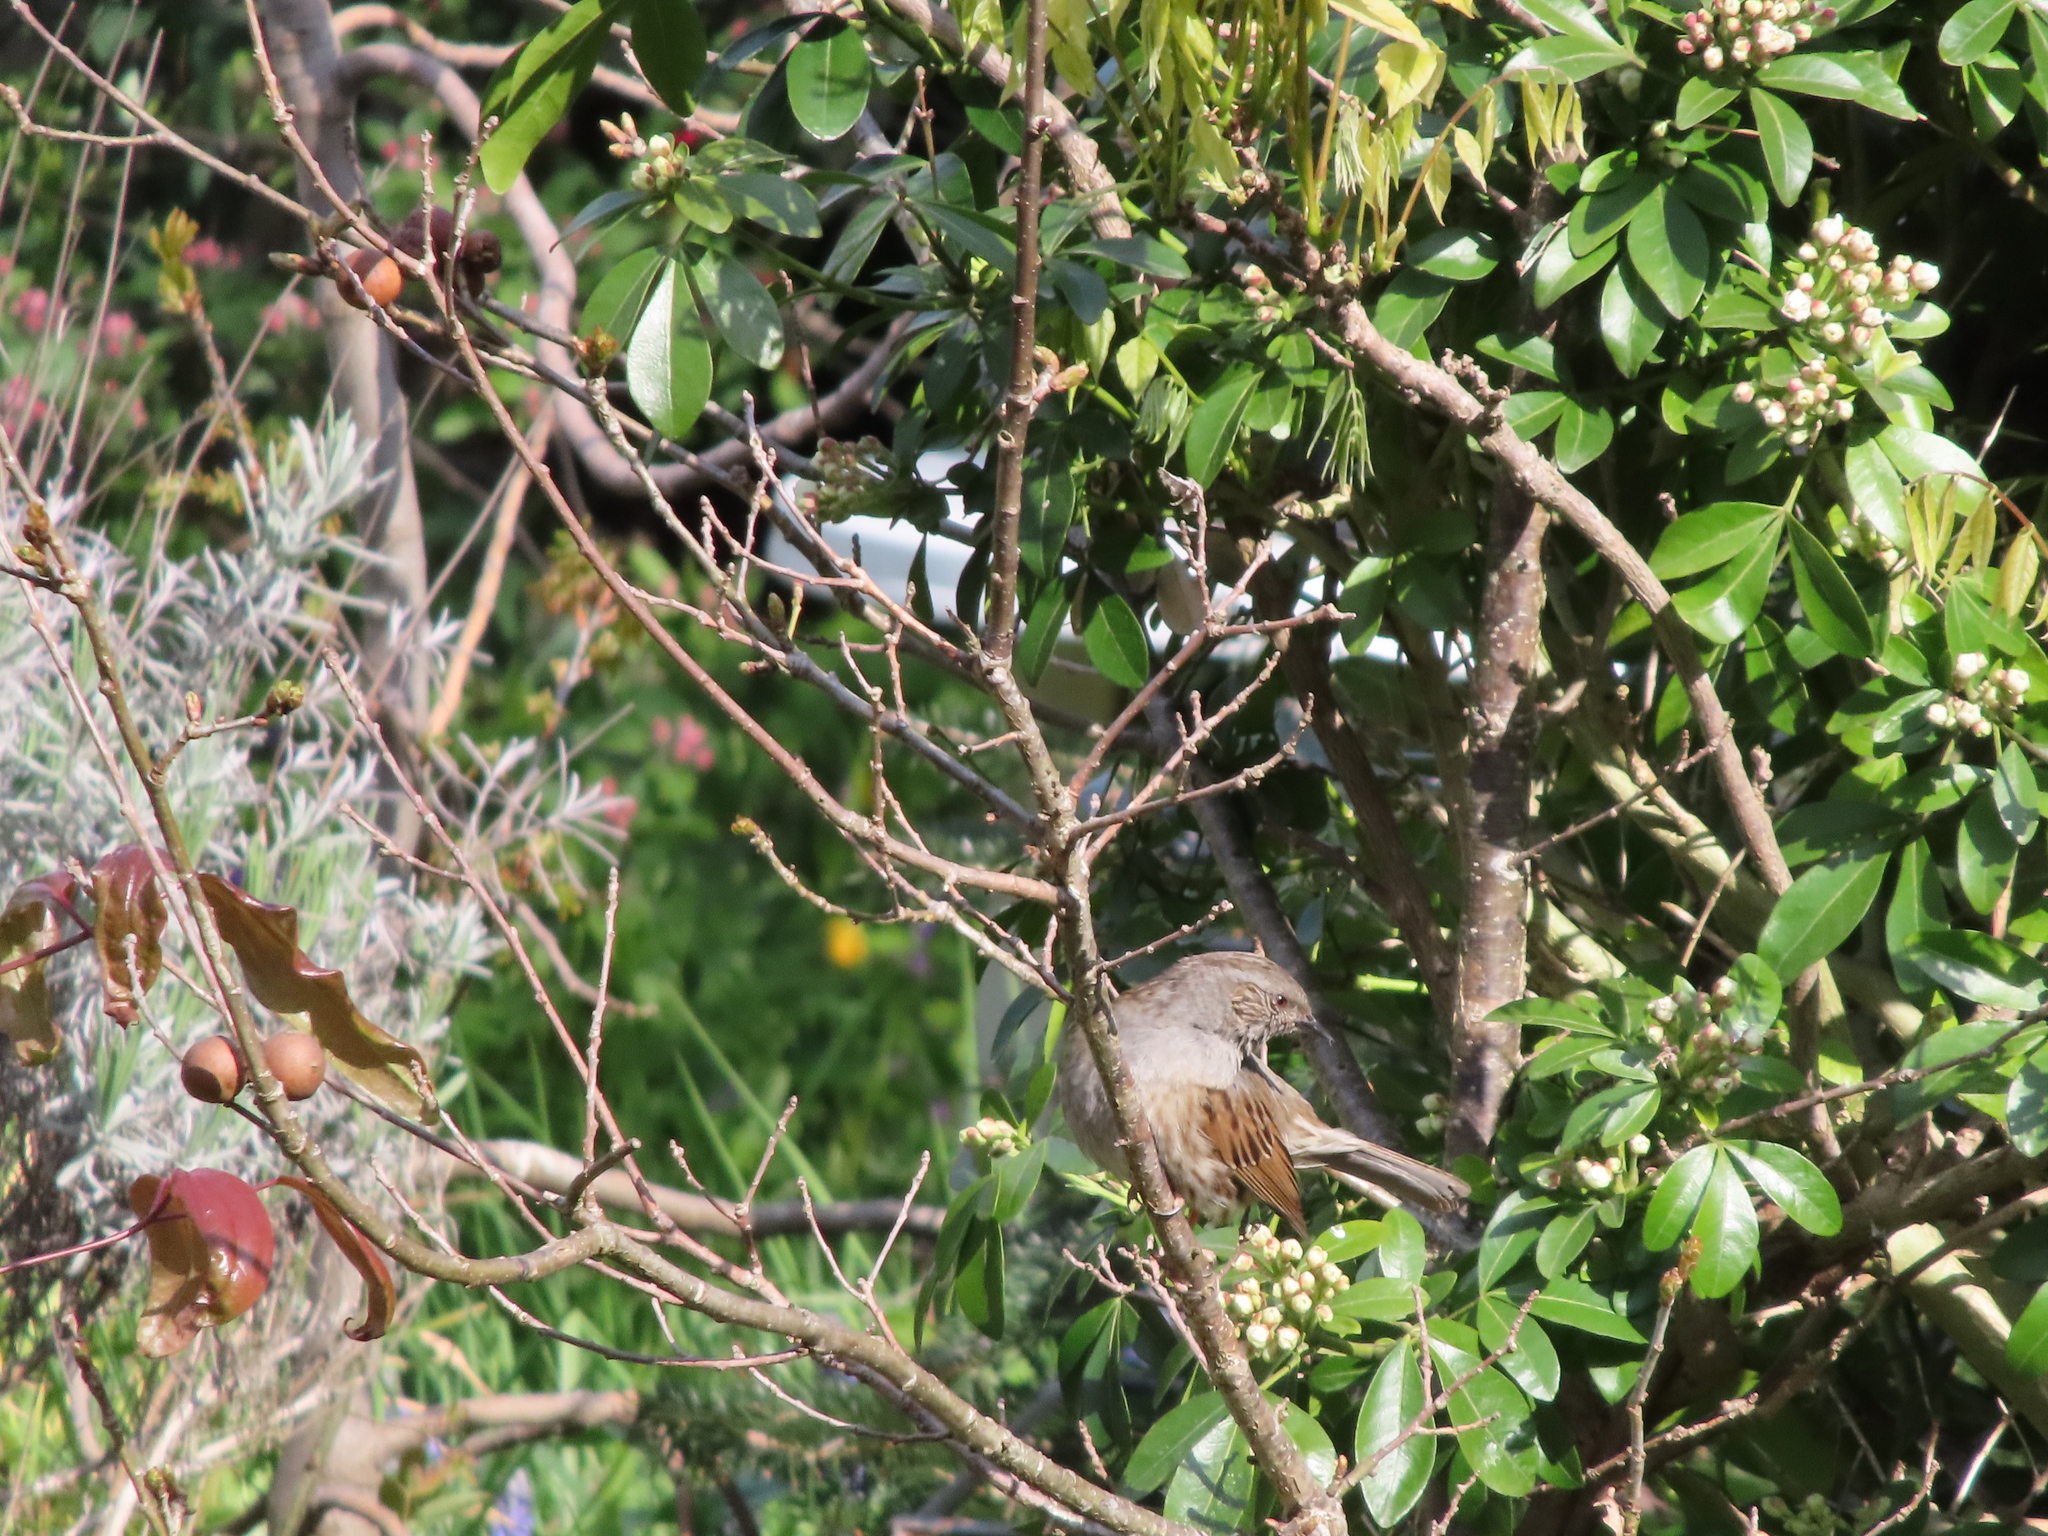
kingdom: Animalia
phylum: Chordata
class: Aves
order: Passeriformes
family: Prunellidae
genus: Prunella
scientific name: Prunella modularis
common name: Dunnock
